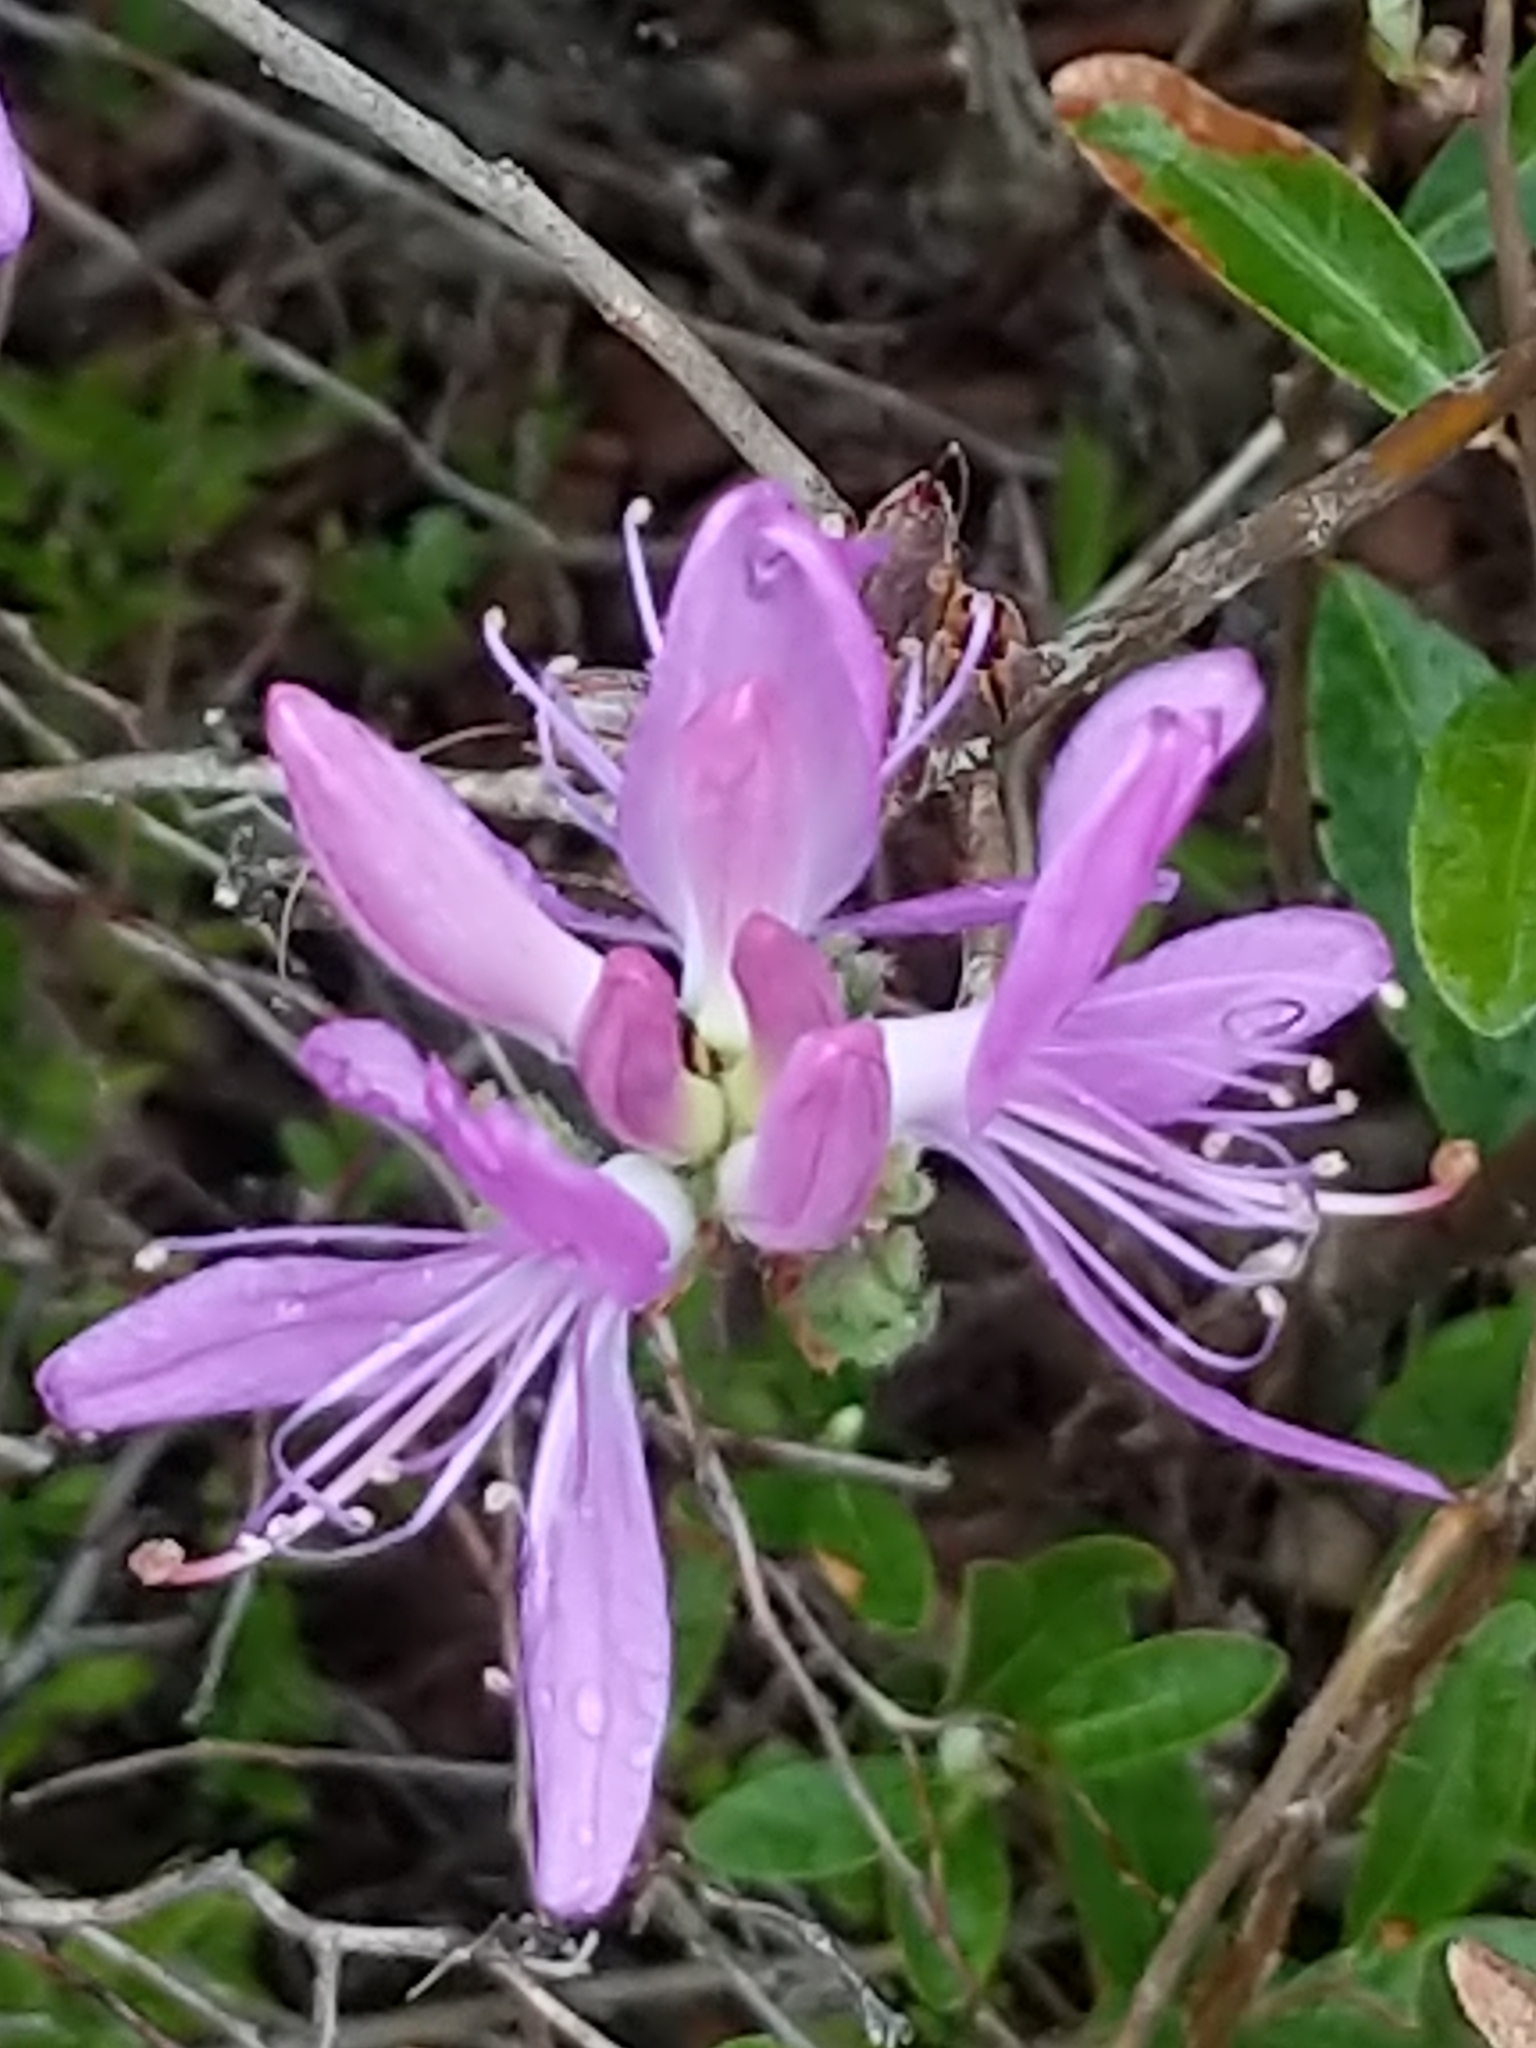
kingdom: Plantae
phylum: Tracheophyta
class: Magnoliopsida
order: Ericales
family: Ericaceae
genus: Rhododendron
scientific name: Rhododendron canadense
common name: Rhodora
